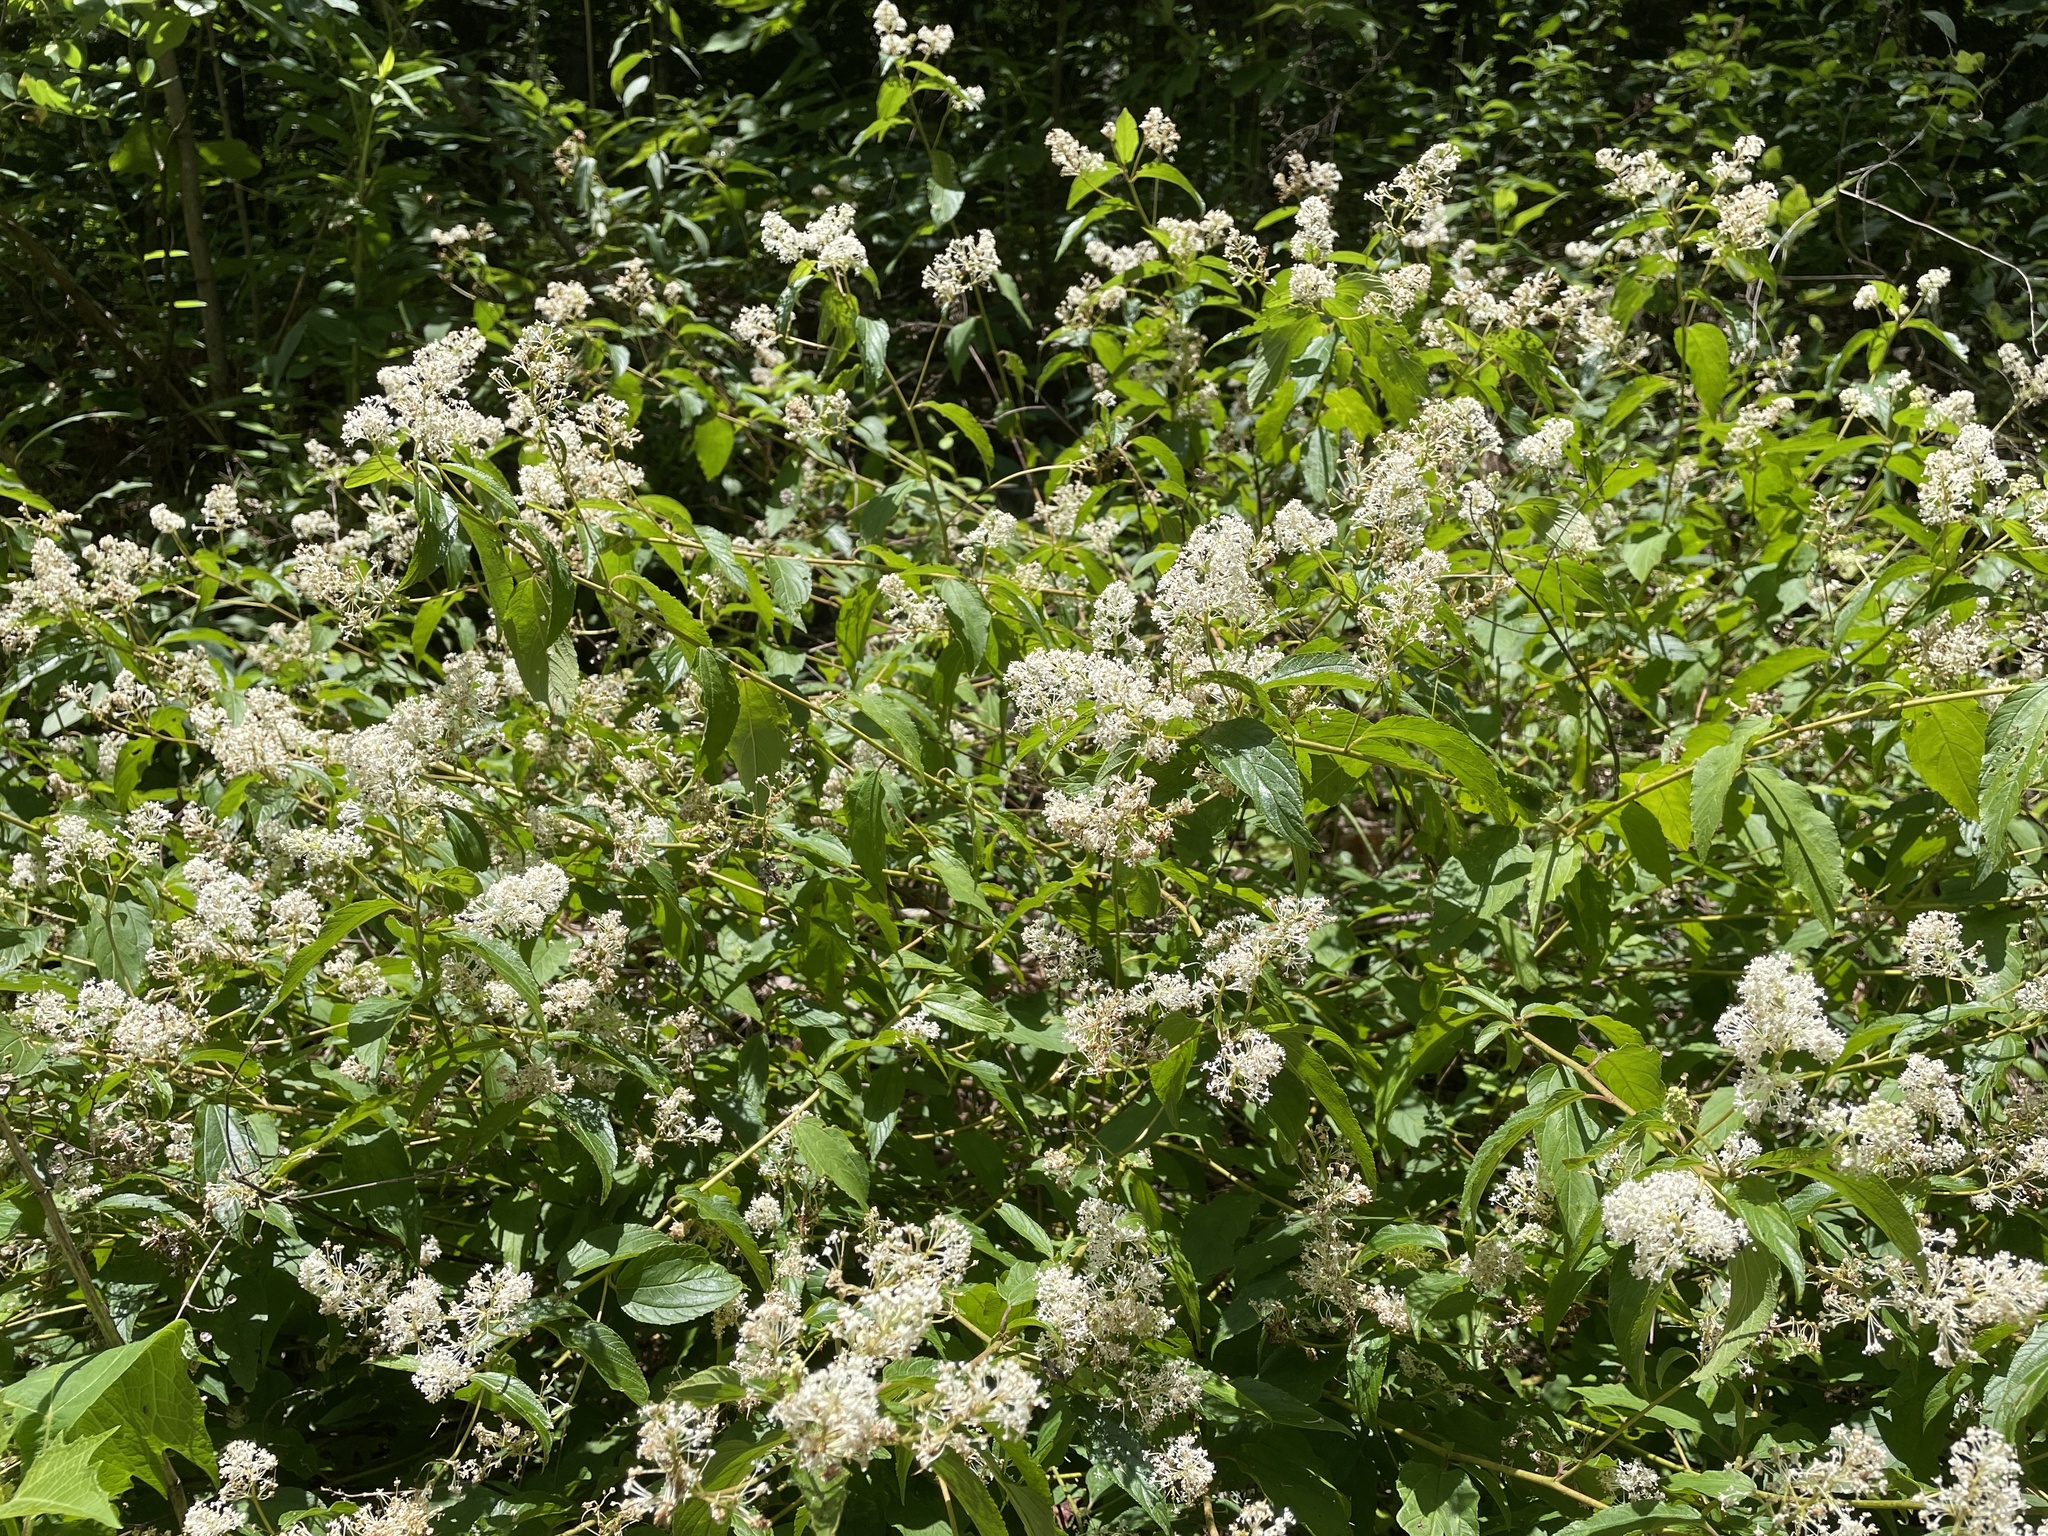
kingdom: Plantae
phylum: Tracheophyta
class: Magnoliopsida
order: Rosales
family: Rhamnaceae
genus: Ceanothus
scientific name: Ceanothus americanus
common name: Redroot
